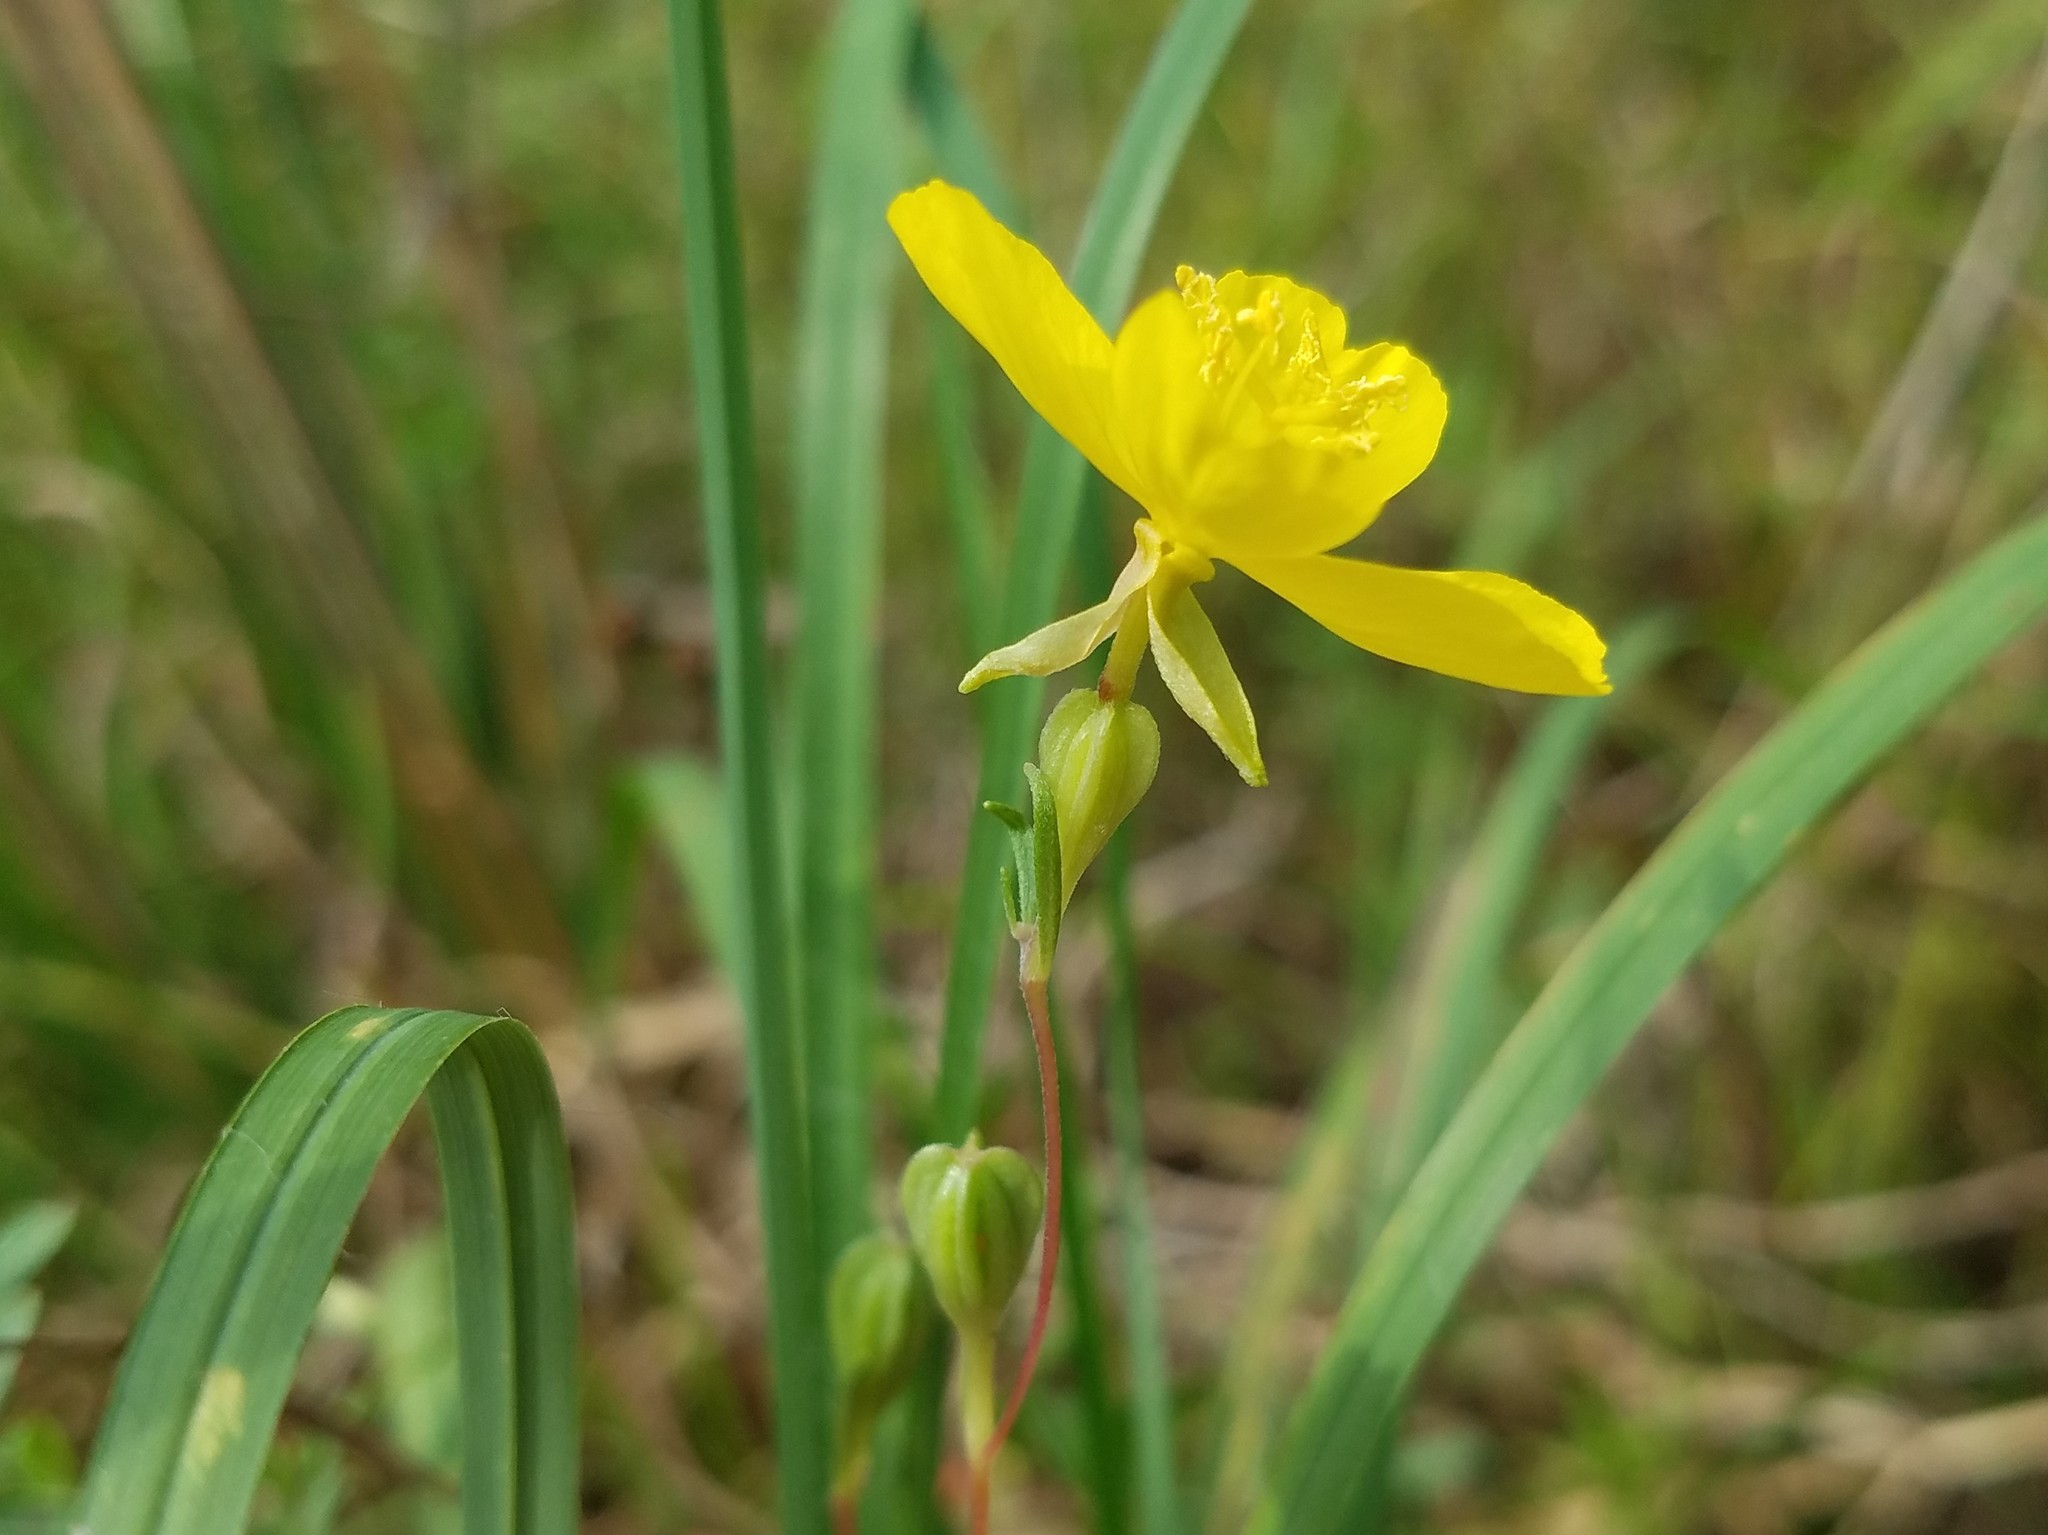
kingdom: Plantae
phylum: Tracheophyta
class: Magnoliopsida
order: Myrtales
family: Onagraceae
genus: Oenothera
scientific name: Oenothera fruticosa
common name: Southern sundrops
